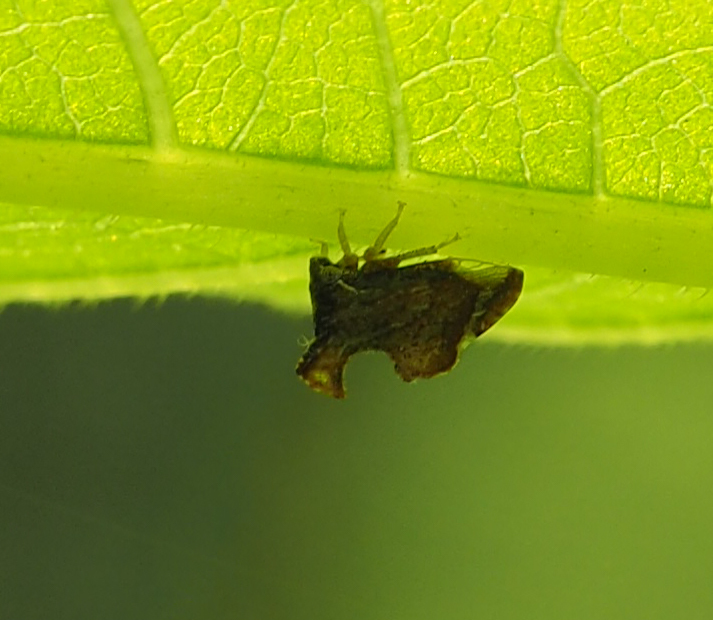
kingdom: Animalia
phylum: Arthropoda
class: Insecta
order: Hemiptera
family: Membracidae
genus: Entylia
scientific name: Entylia carinata
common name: Keeled treehopper
